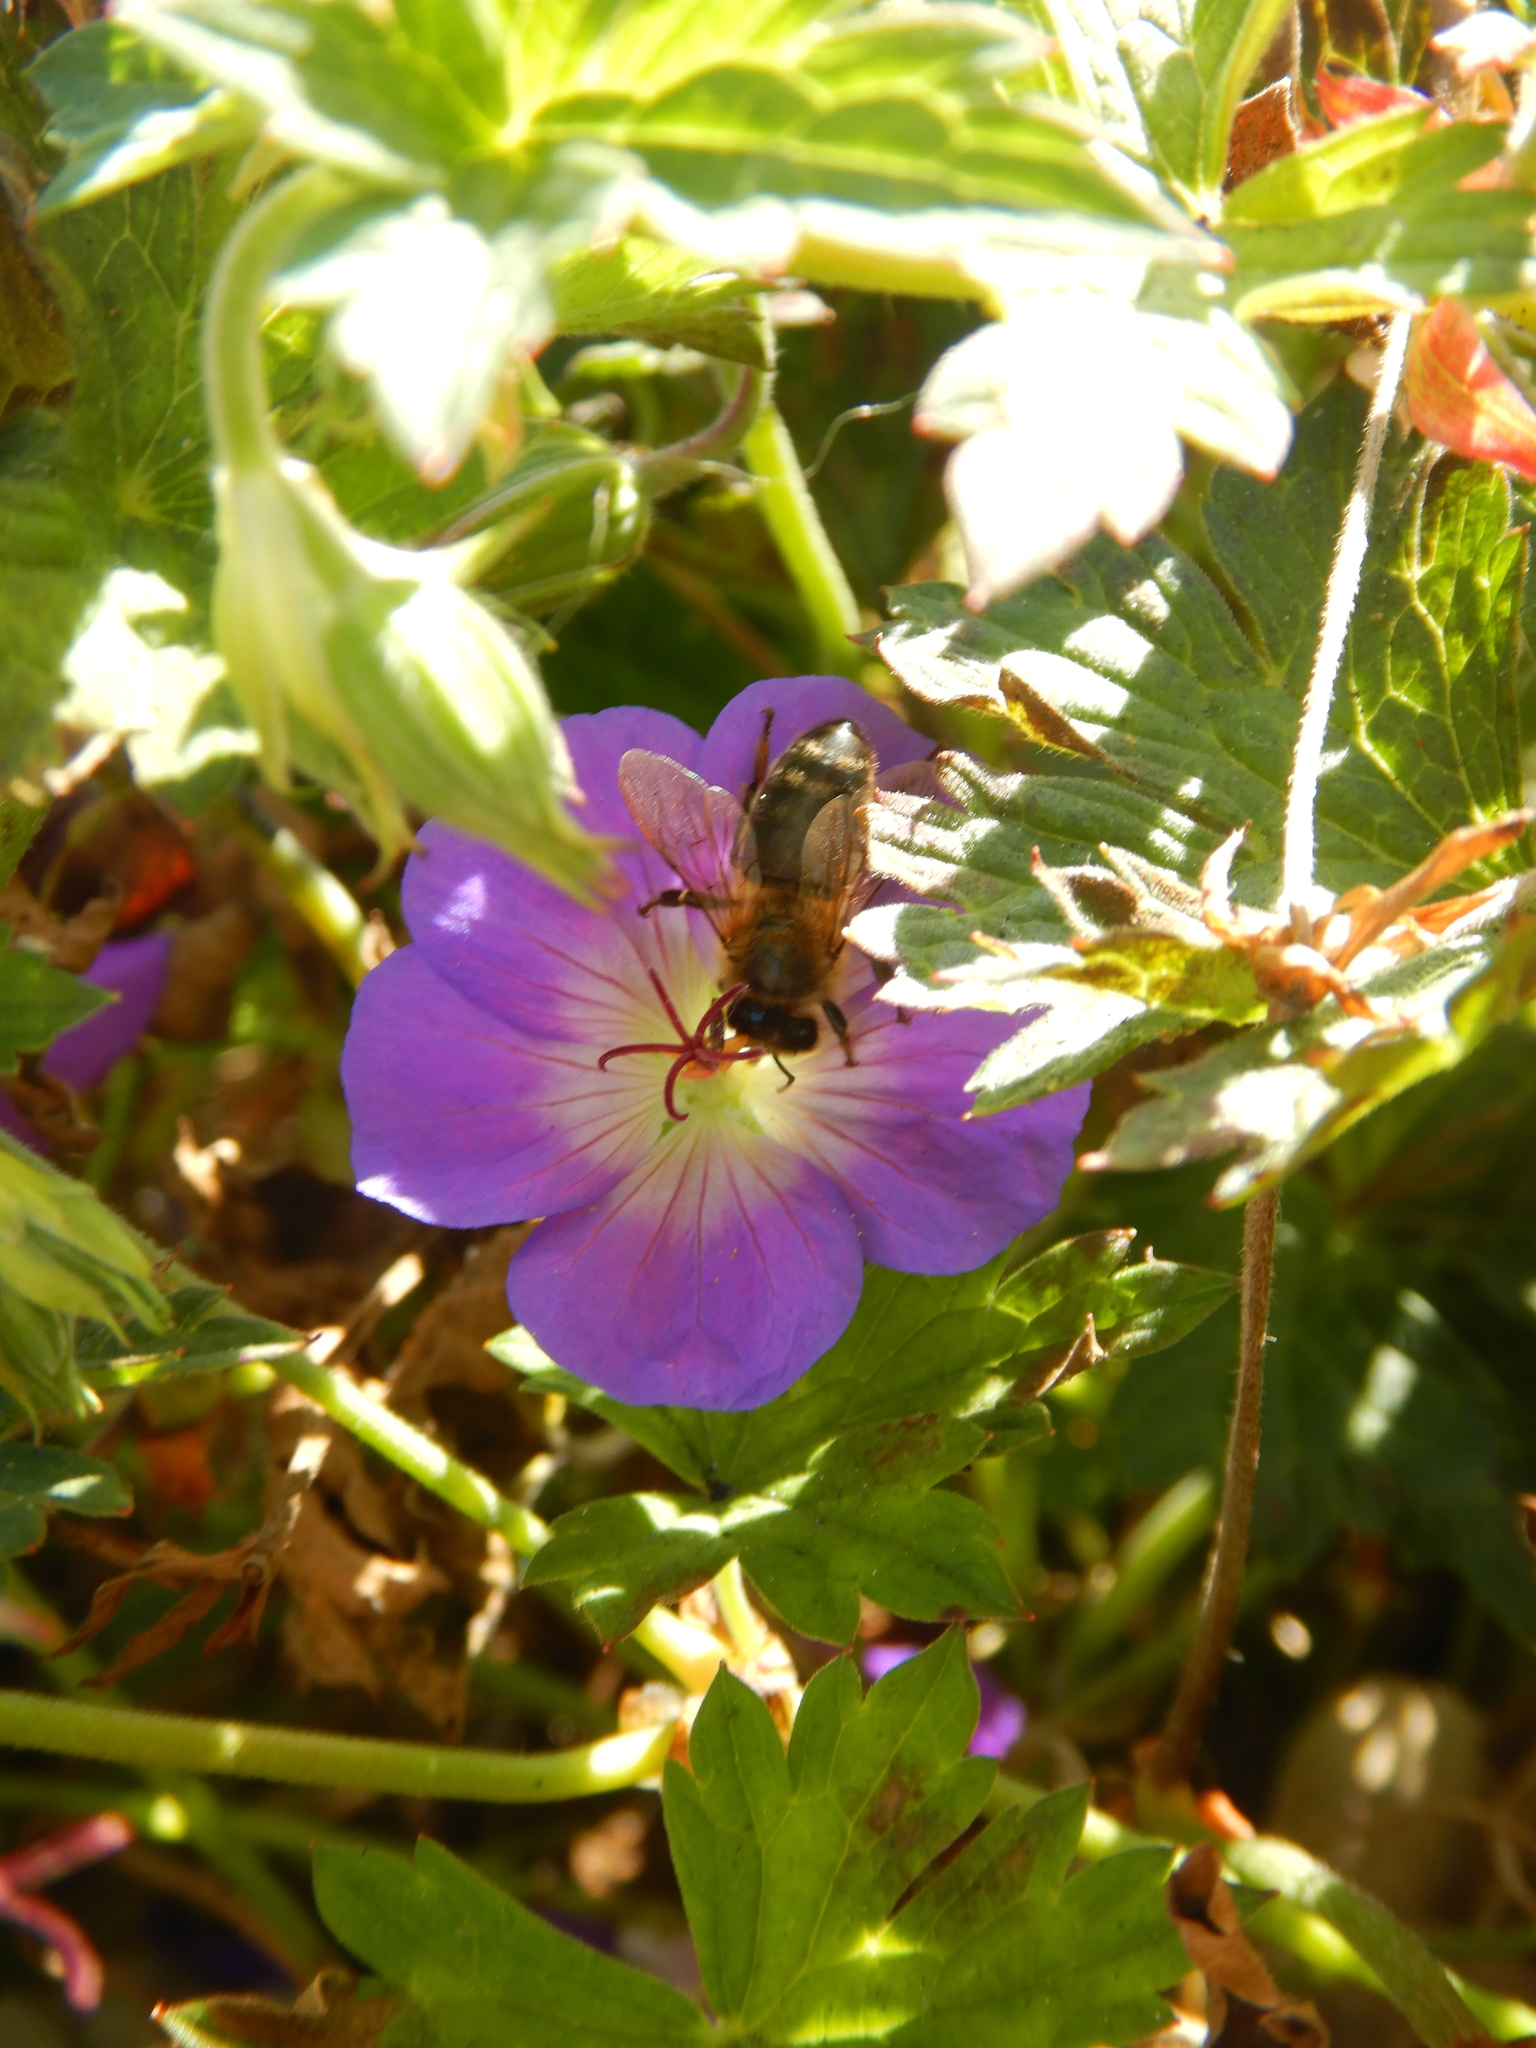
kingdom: Animalia
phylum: Arthropoda
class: Insecta
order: Hymenoptera
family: Apidae
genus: Apis
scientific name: Apis mellifera
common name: Honey bee
